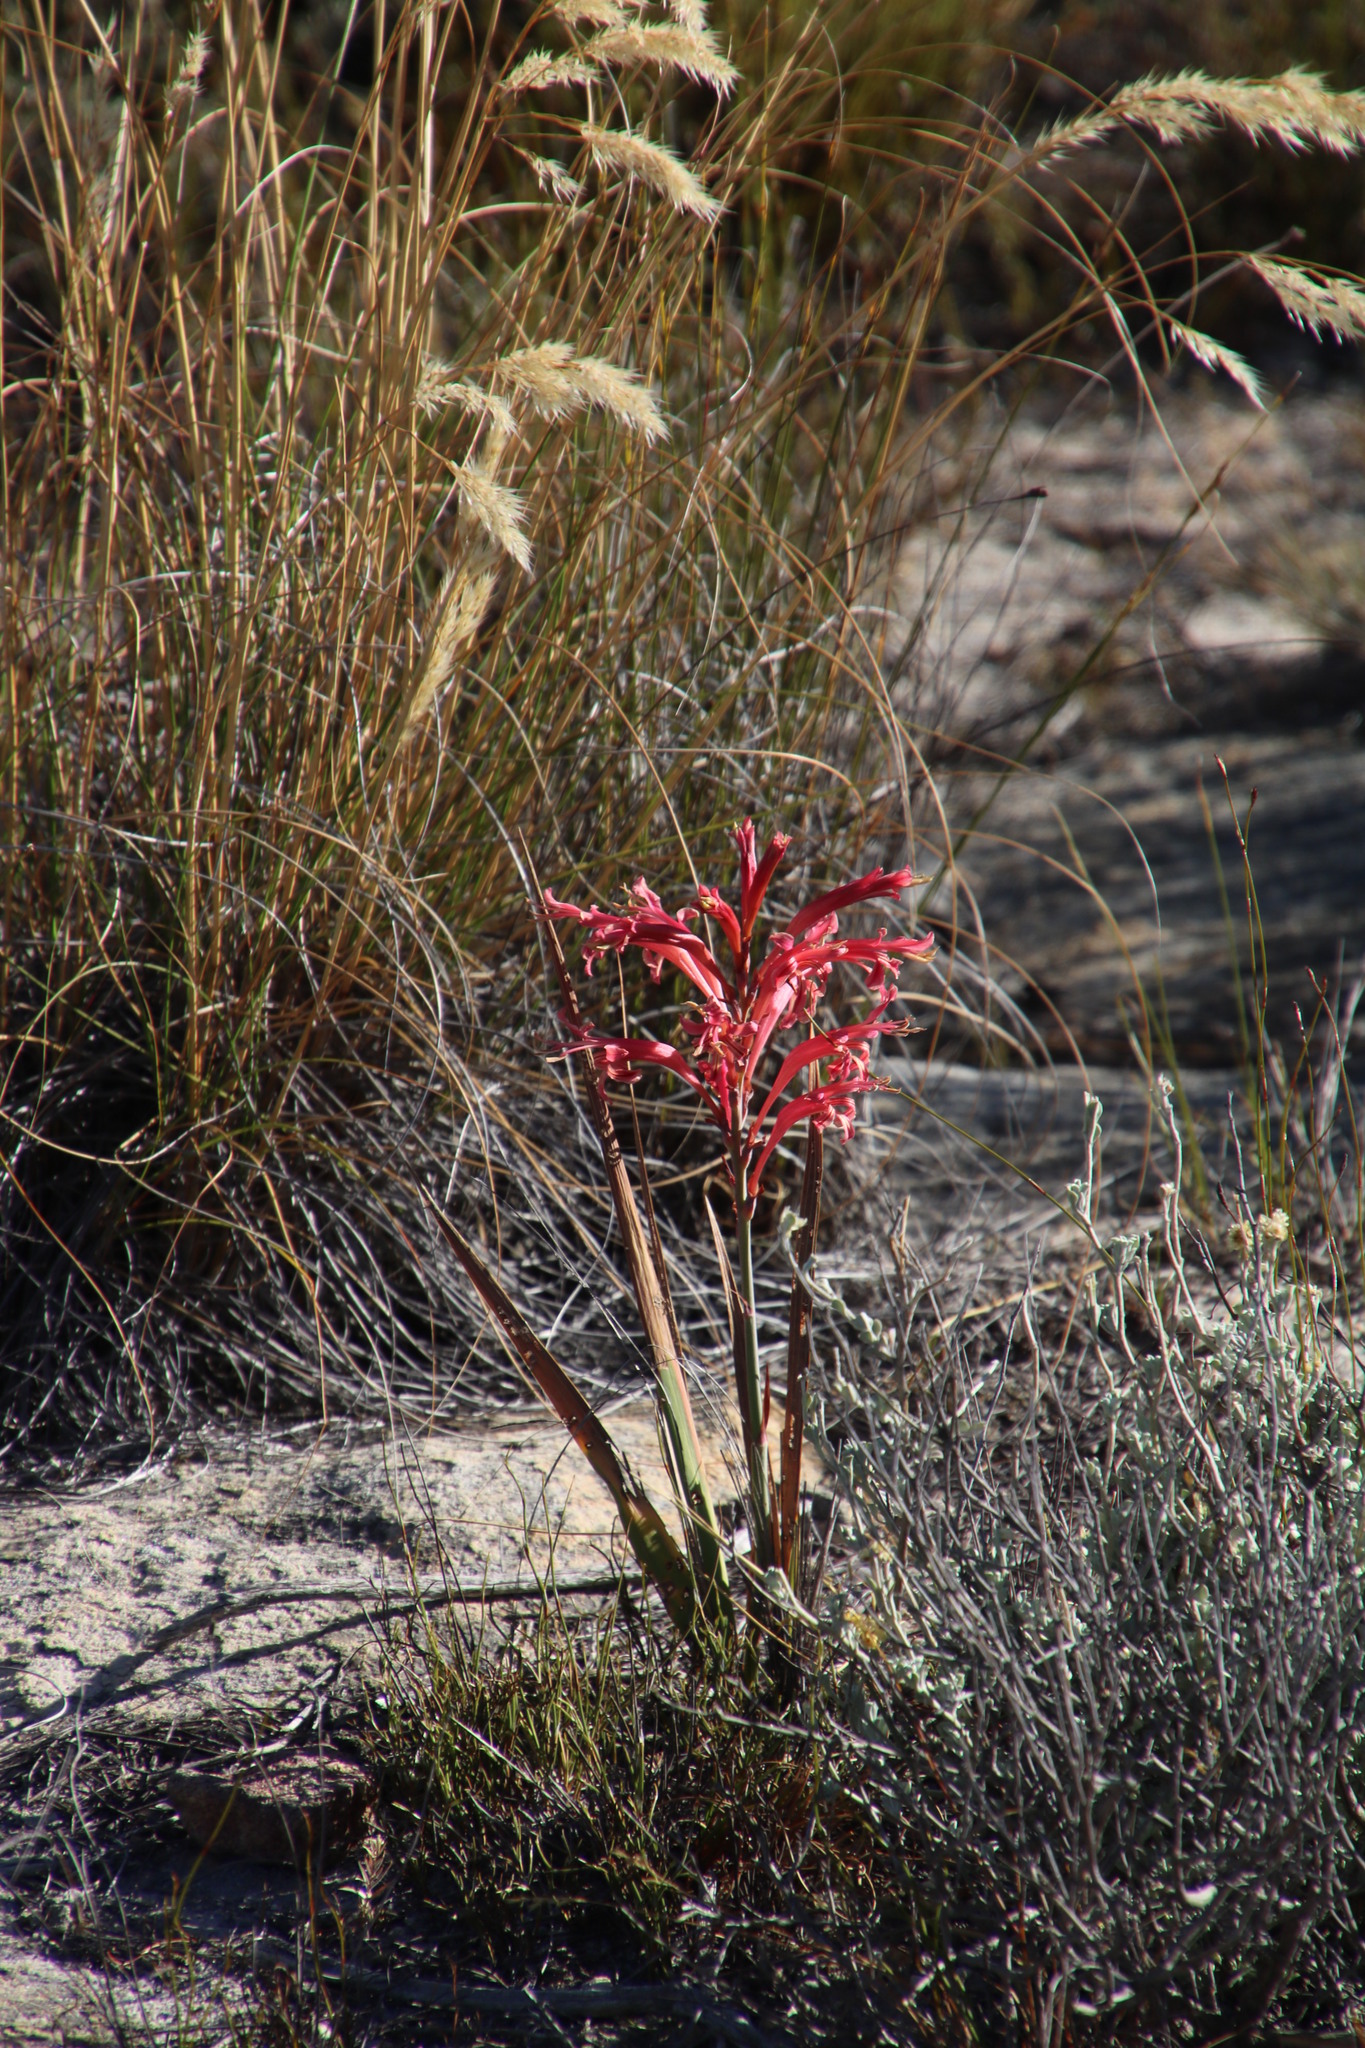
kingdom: Plantae
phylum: Tracheophyta
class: Liliopsida
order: Asparagales
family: Iridaceae
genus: Tritoniopsis
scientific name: Tritoniopsis antholyza
